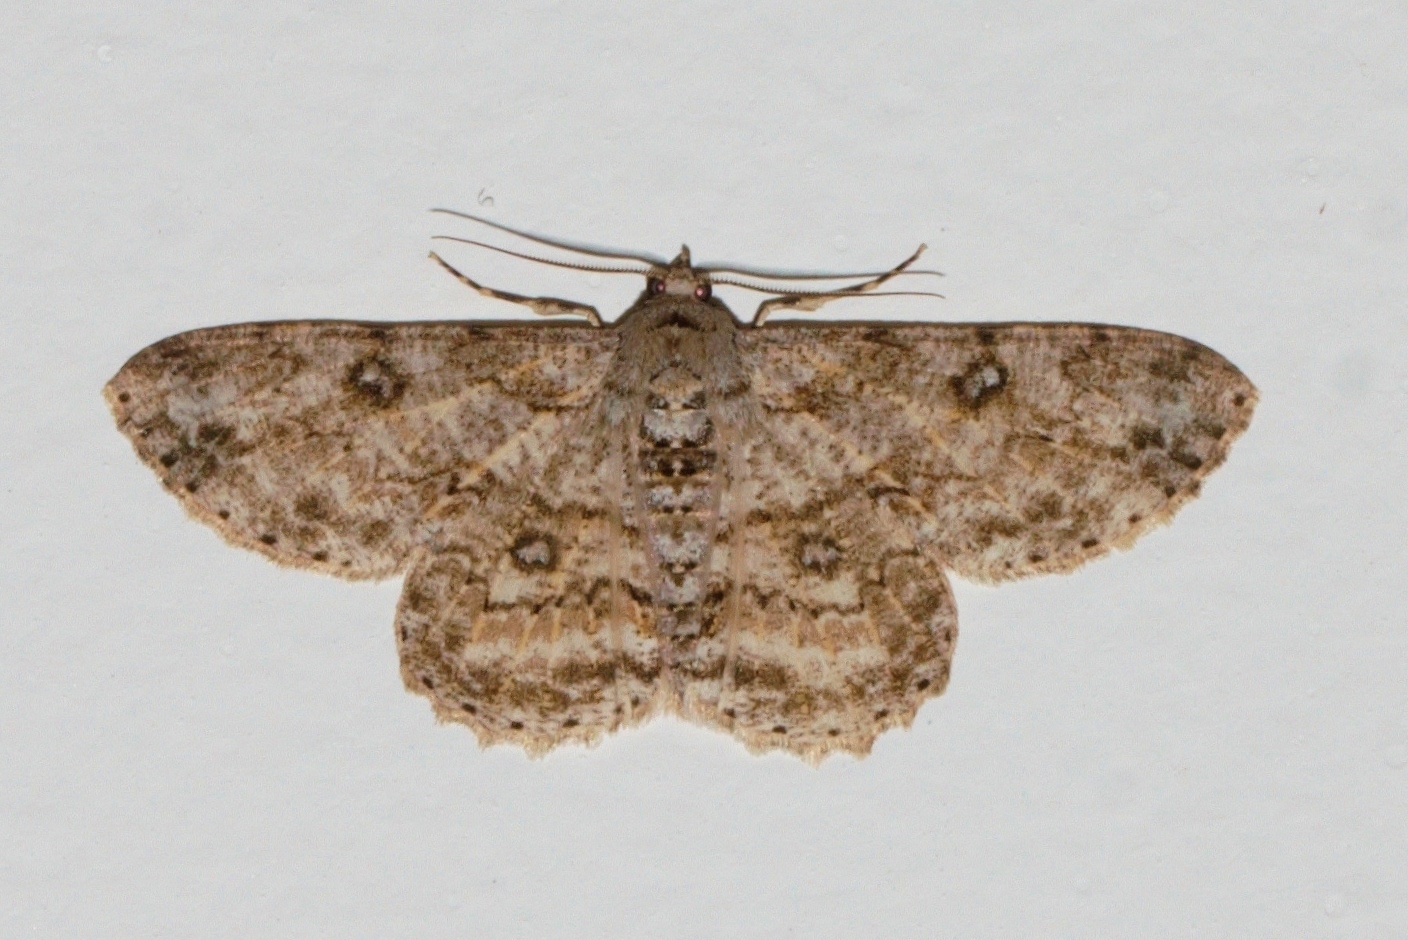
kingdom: Animalia
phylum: Arthropoda
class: Insecta
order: Lepidoptera
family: Geometridae
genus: Ascotis
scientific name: Ascotis reciprocaria
